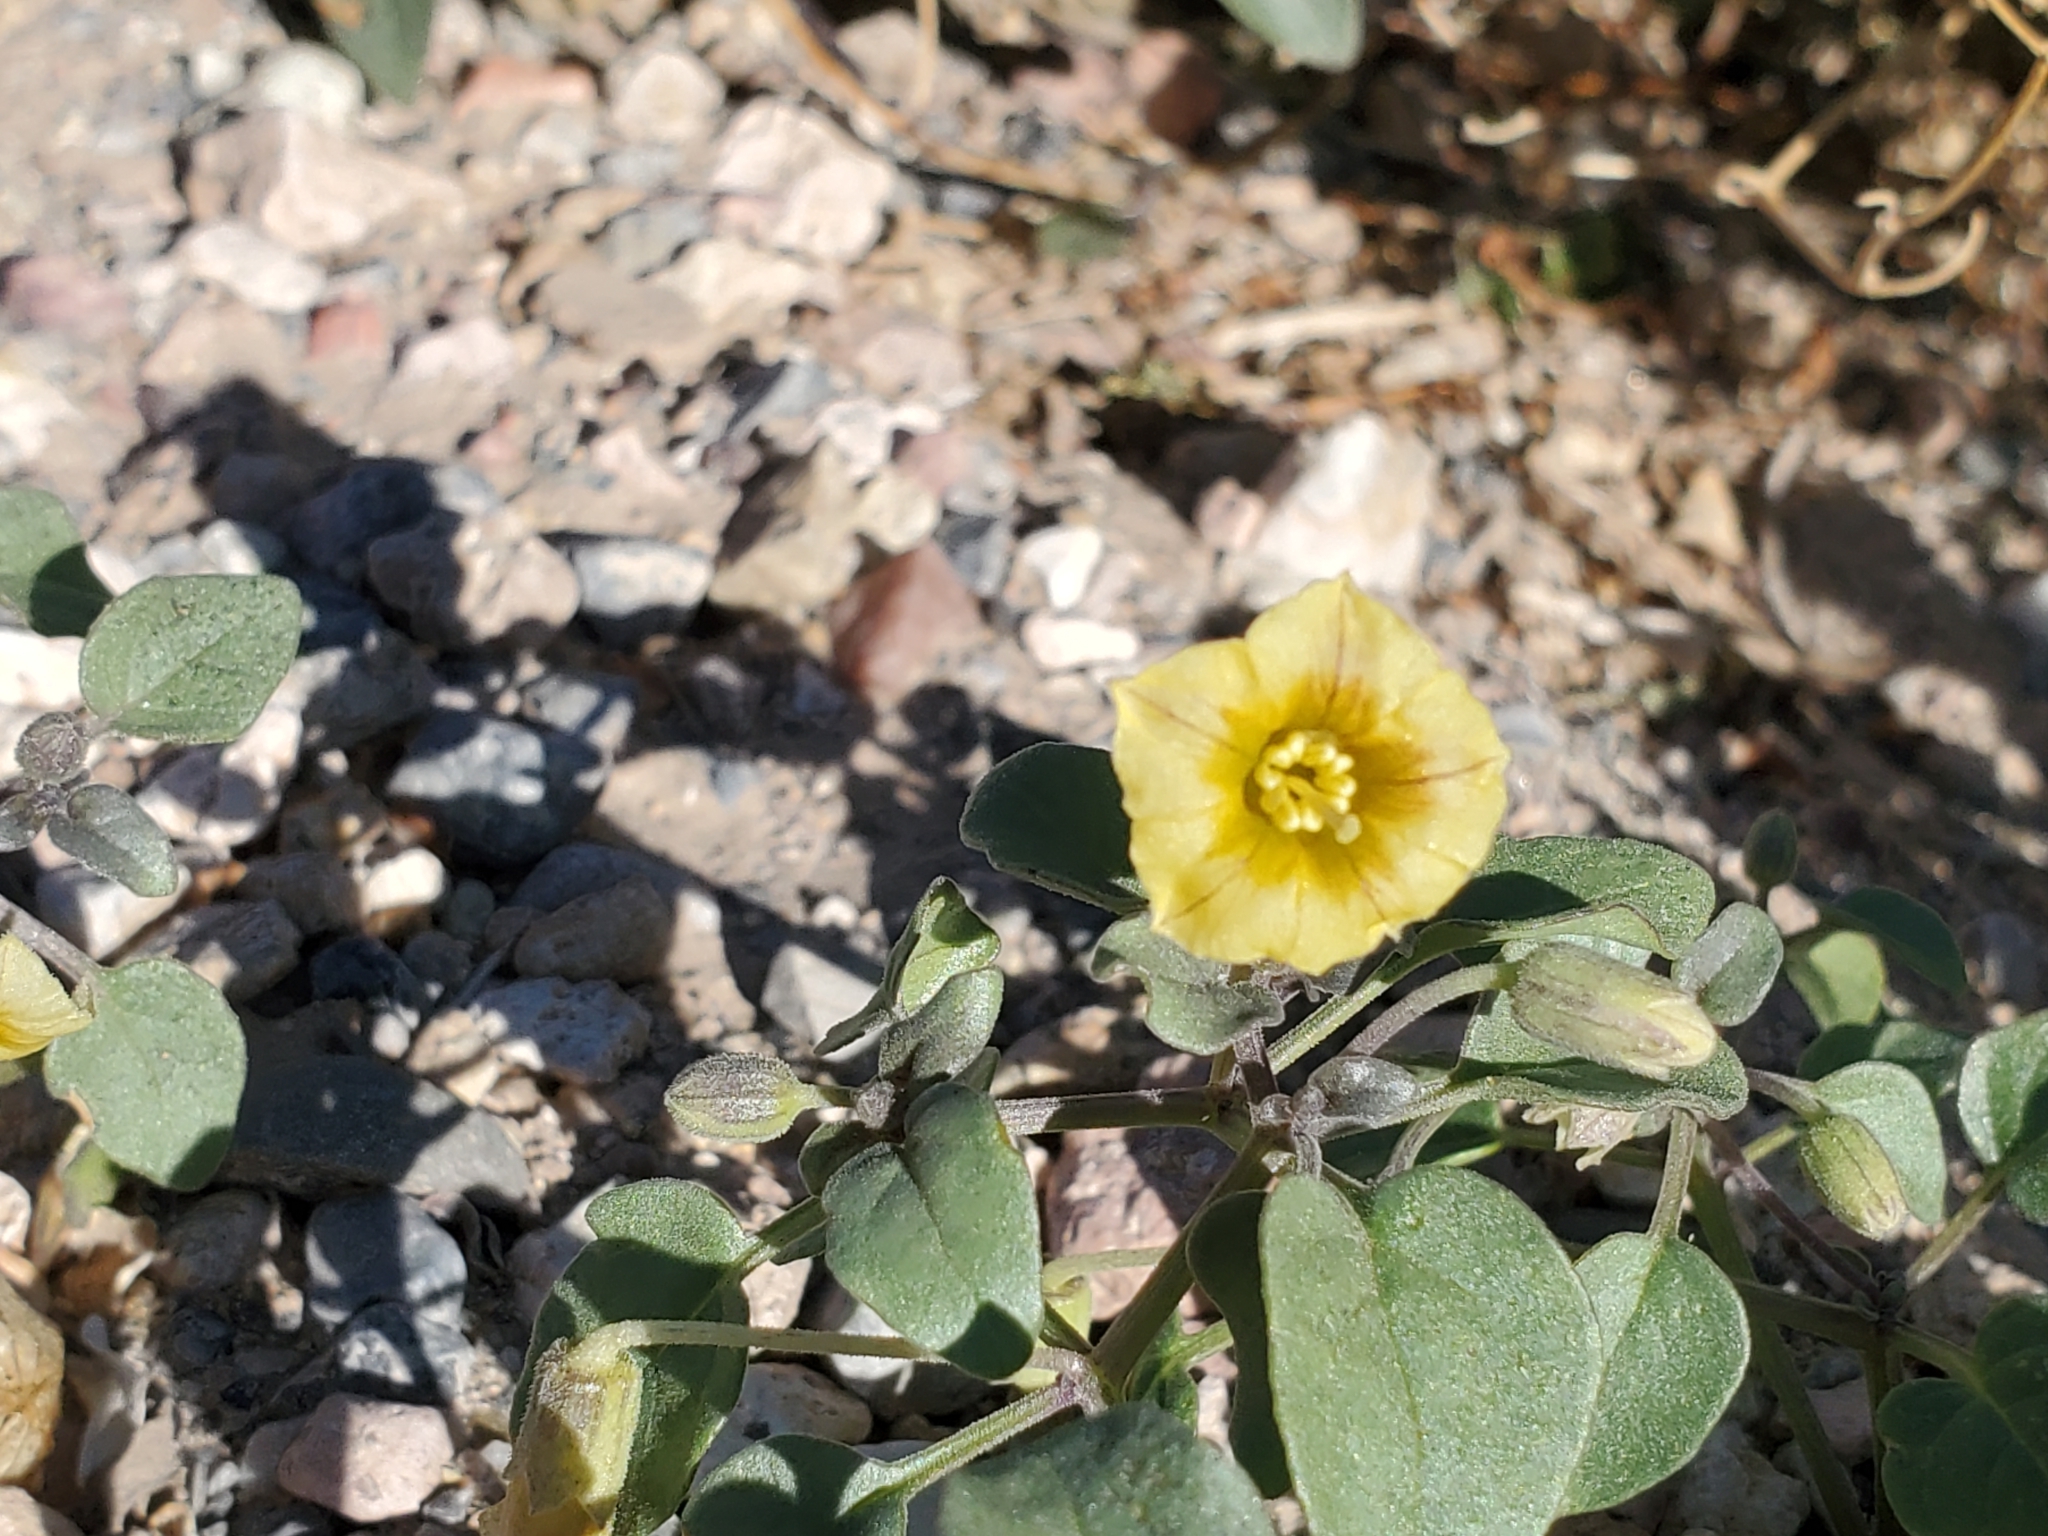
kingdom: Plantae
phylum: Tracheophyta
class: Magnoliopsida
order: Solanales
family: Solanaceae
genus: Physalis
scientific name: Physalis crassifolia
